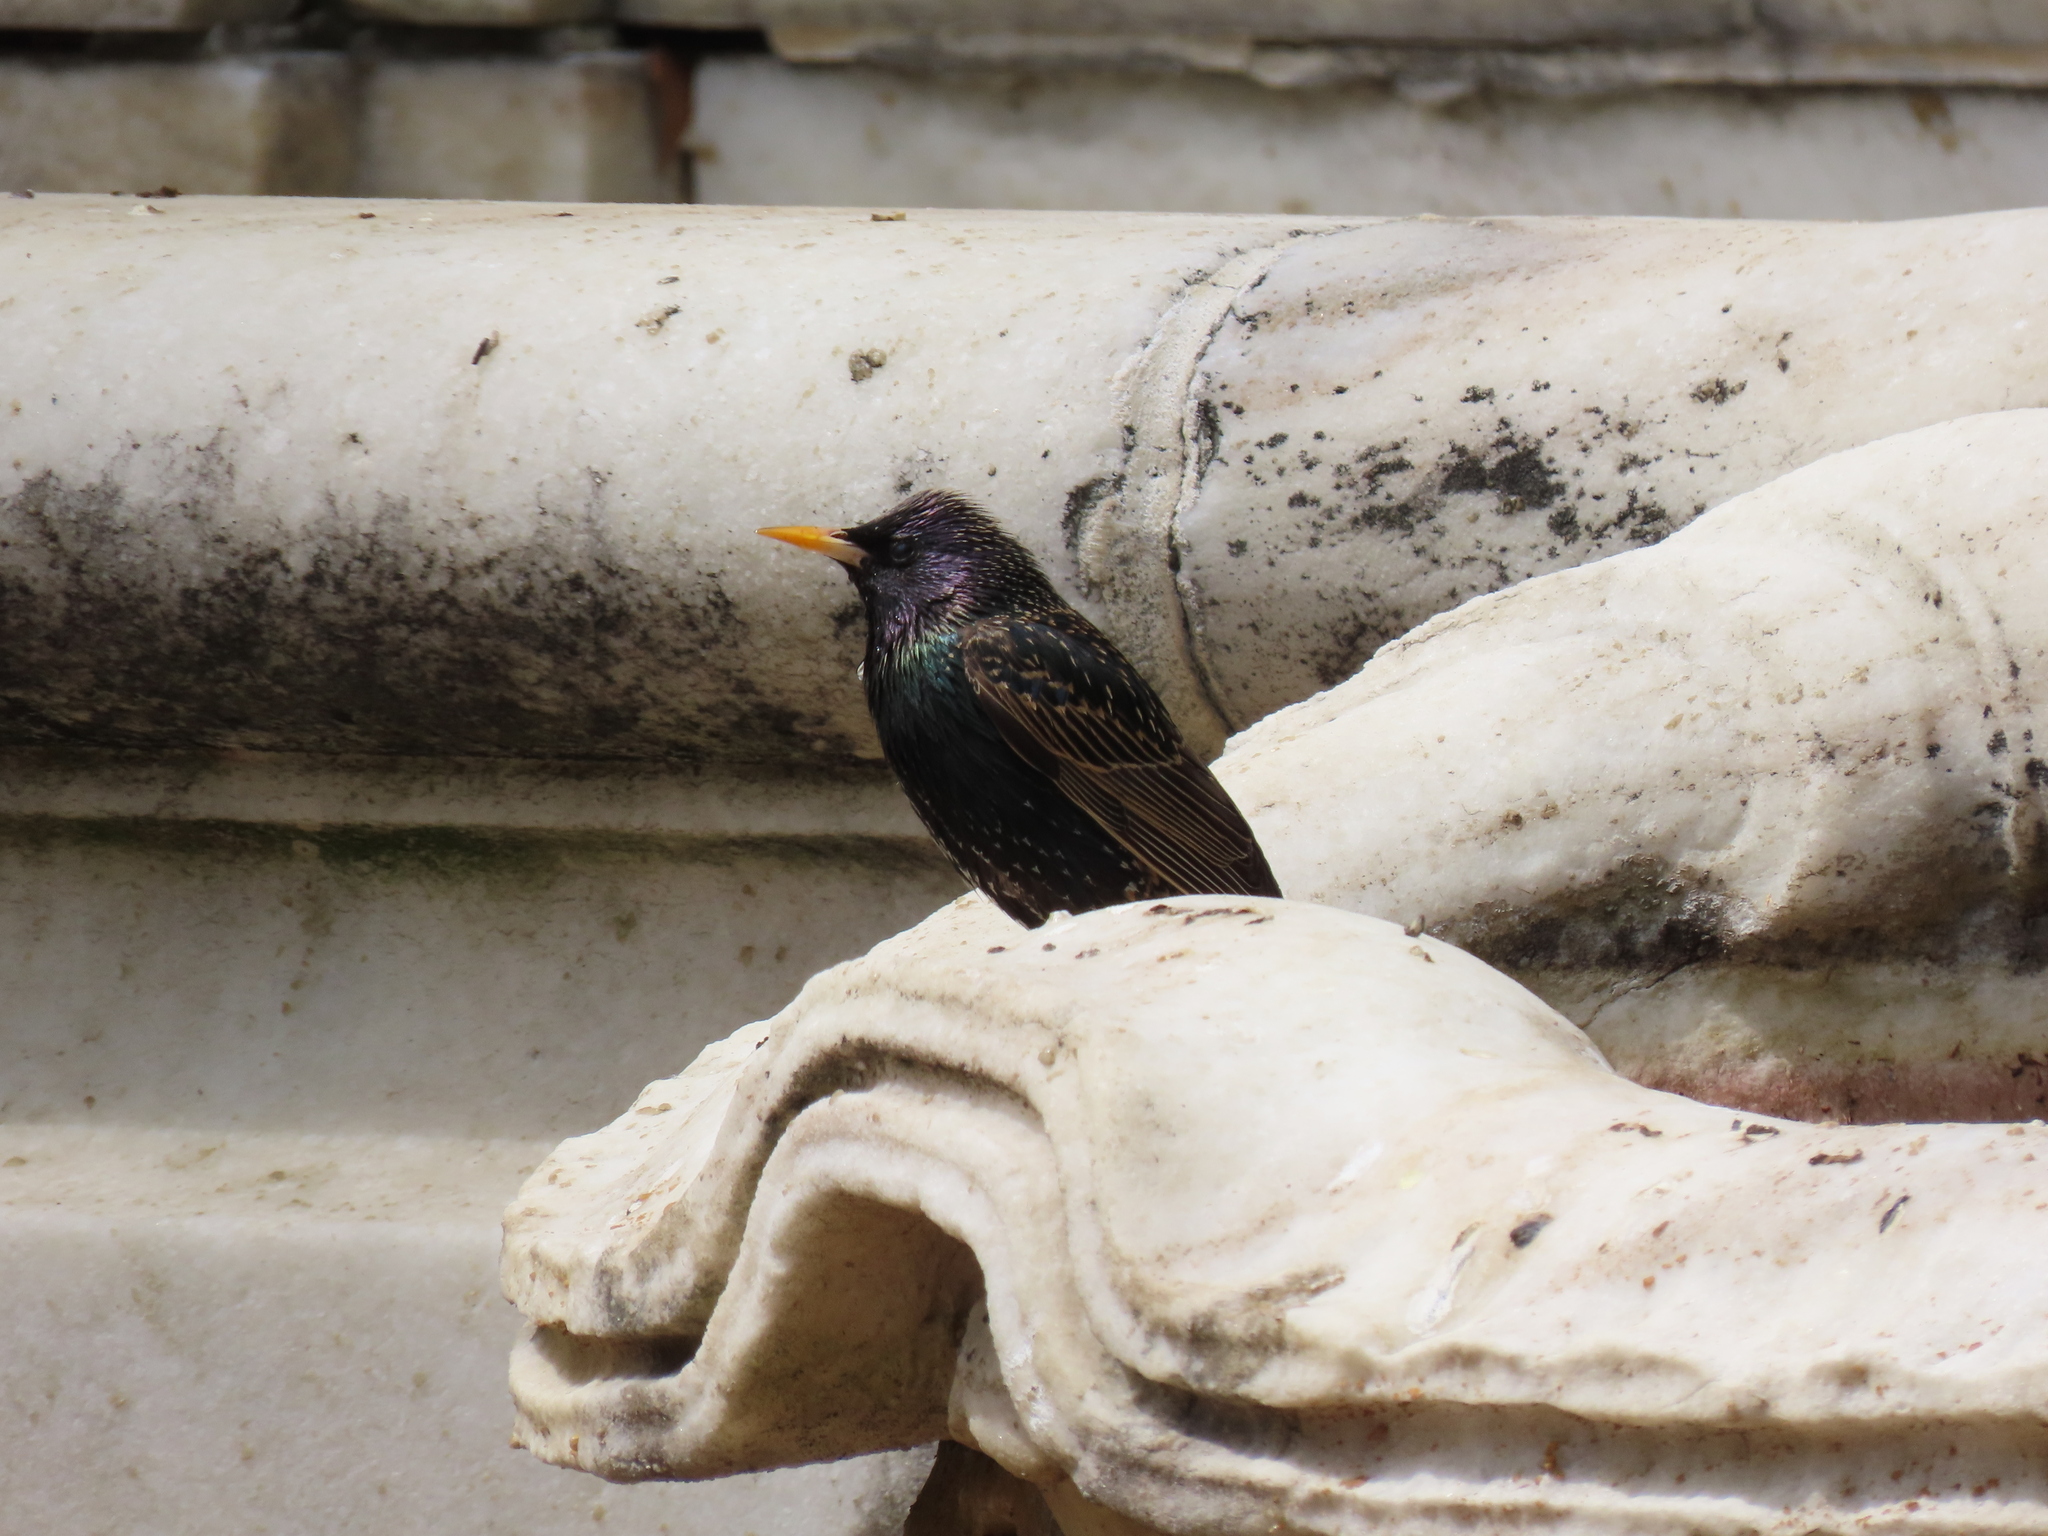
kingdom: Animalia
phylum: Chordata
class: Aves
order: Passeriformes
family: Sturnidae
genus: Sturnus
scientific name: Sturnus vulgaris
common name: Common starling
